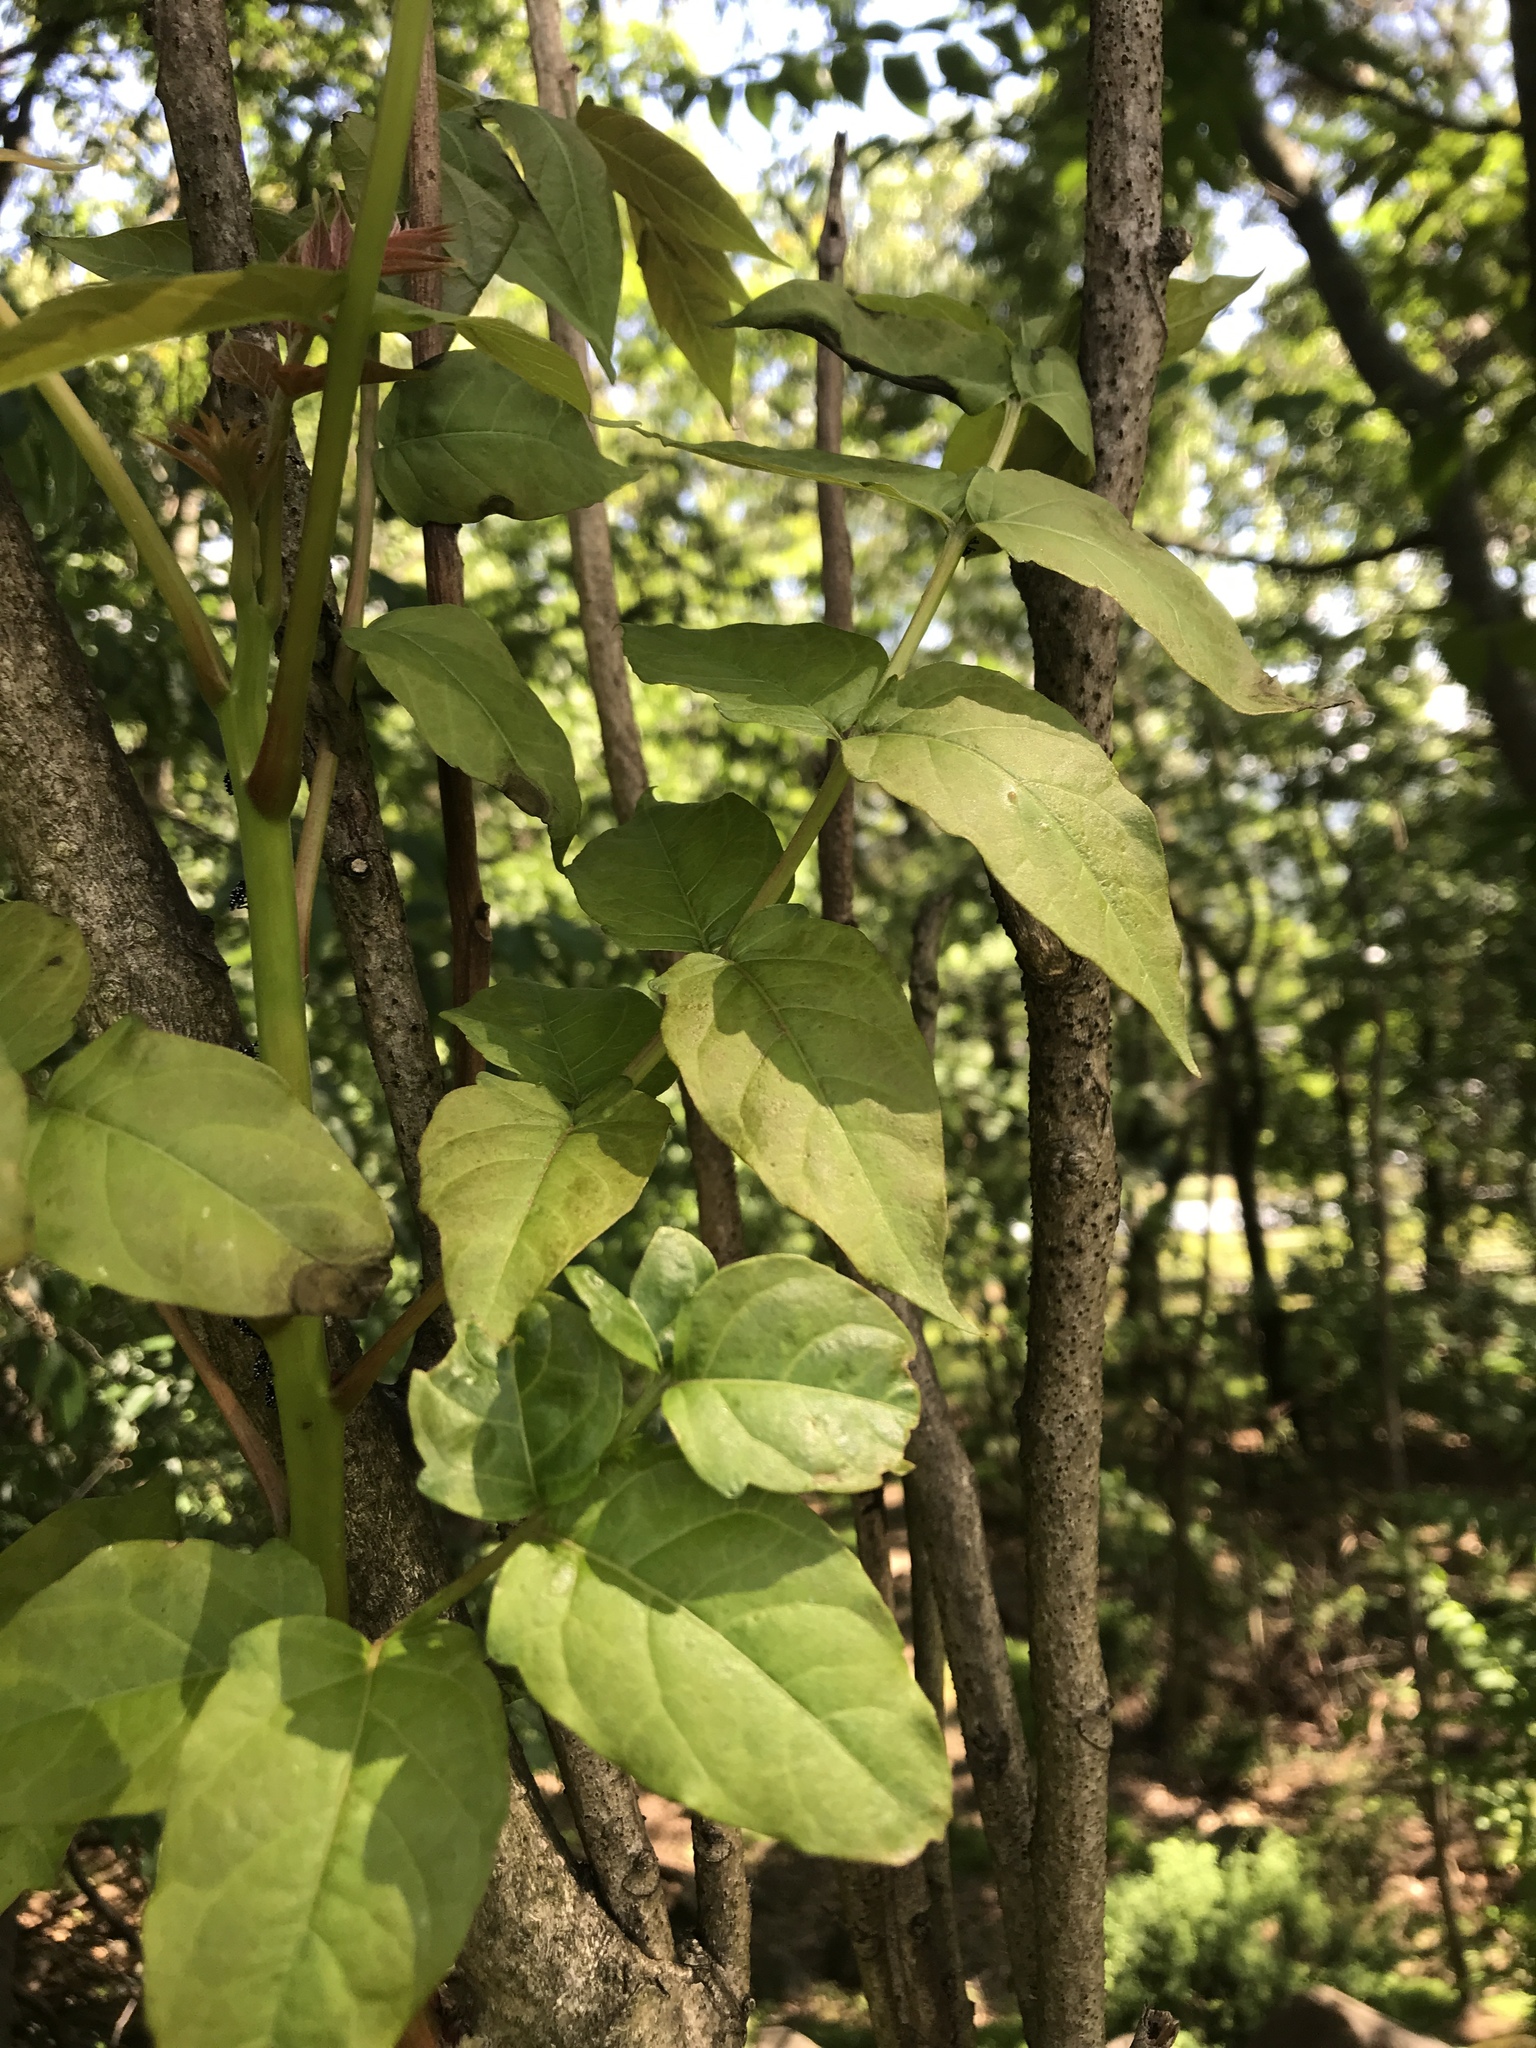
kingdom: Plantae
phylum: Tracheophyta
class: Magnoliopsida
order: Sapindales
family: Simaroubaceae
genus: Ailanthus
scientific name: Ailanthus altissima
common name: Tree-of-heaven
